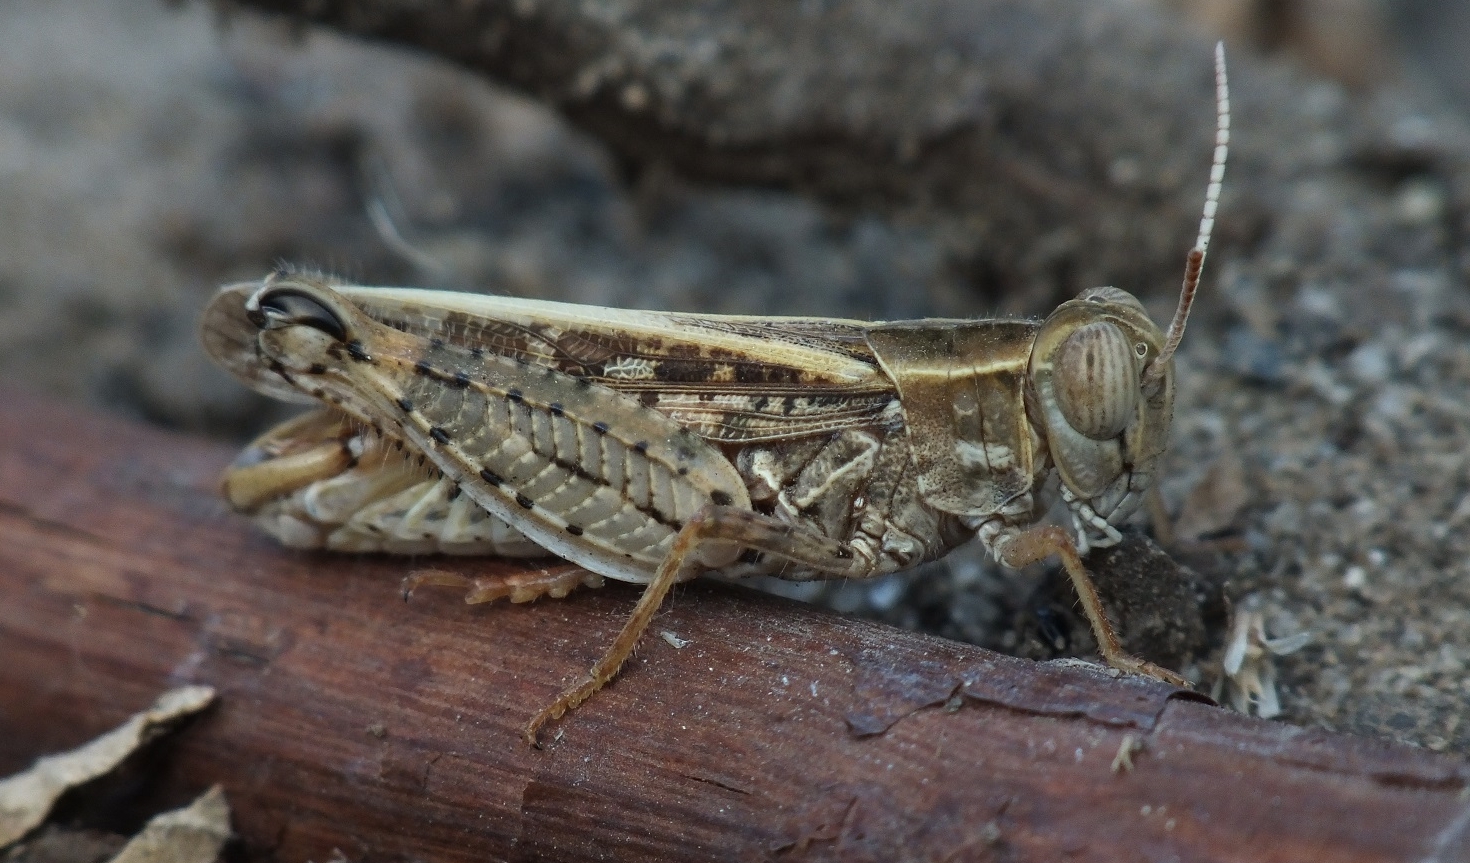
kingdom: Animalia
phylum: Arthropoda
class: Insecta
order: Orthoptera
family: Acrididae
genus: Calliptamus
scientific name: Calliptamus barbarus
